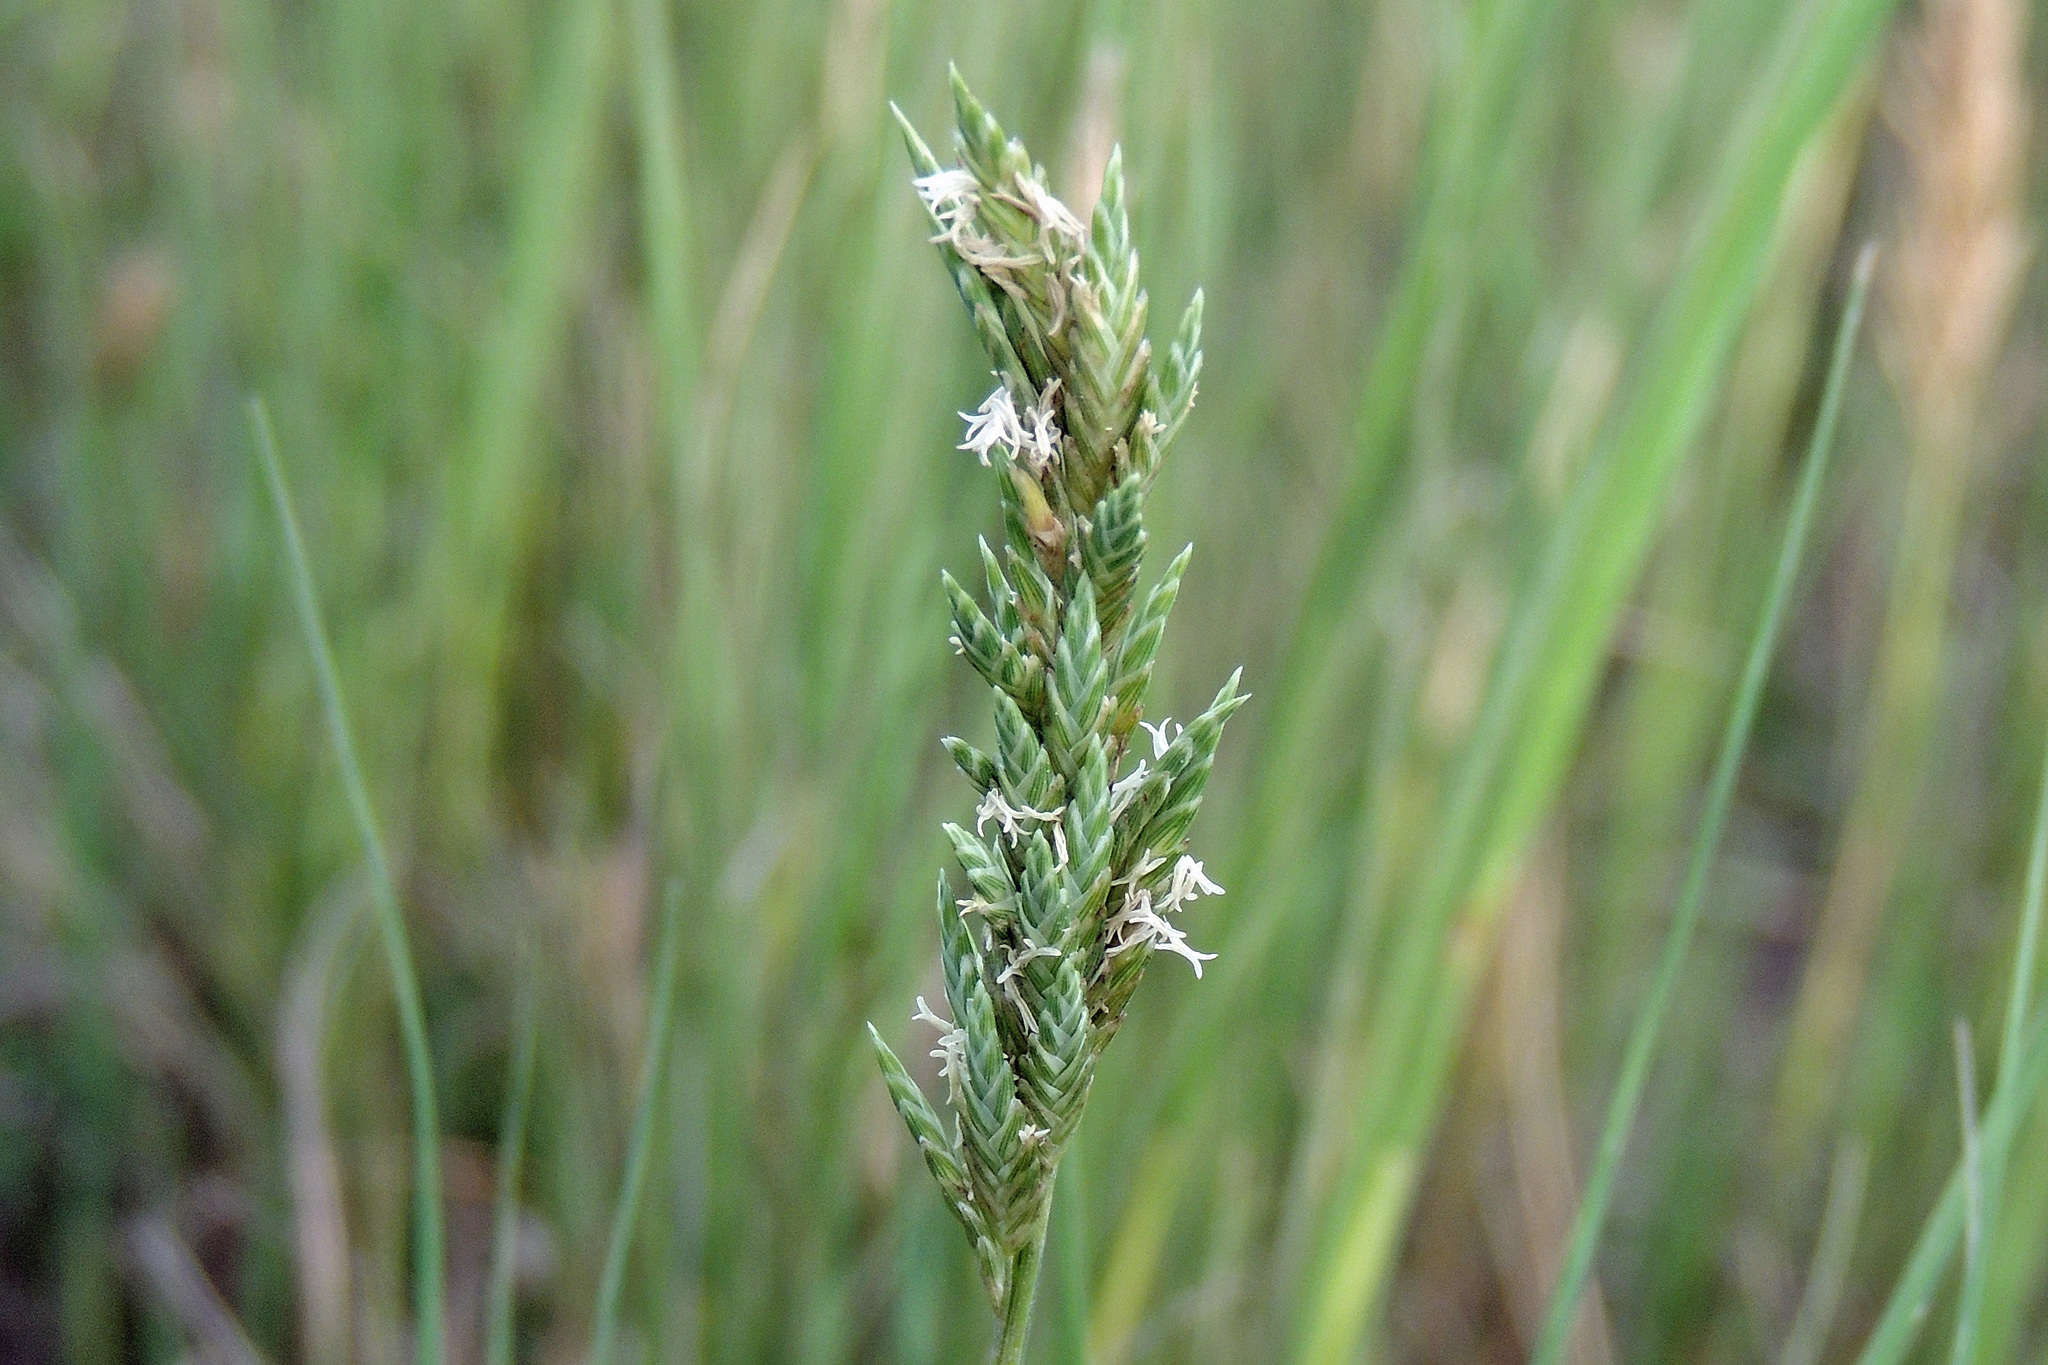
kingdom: Plantae
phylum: Tracheophyta
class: Liliopsida
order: Poales
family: Poaceae
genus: Distichlis
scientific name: Distichlis spicata
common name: Saltgrass
